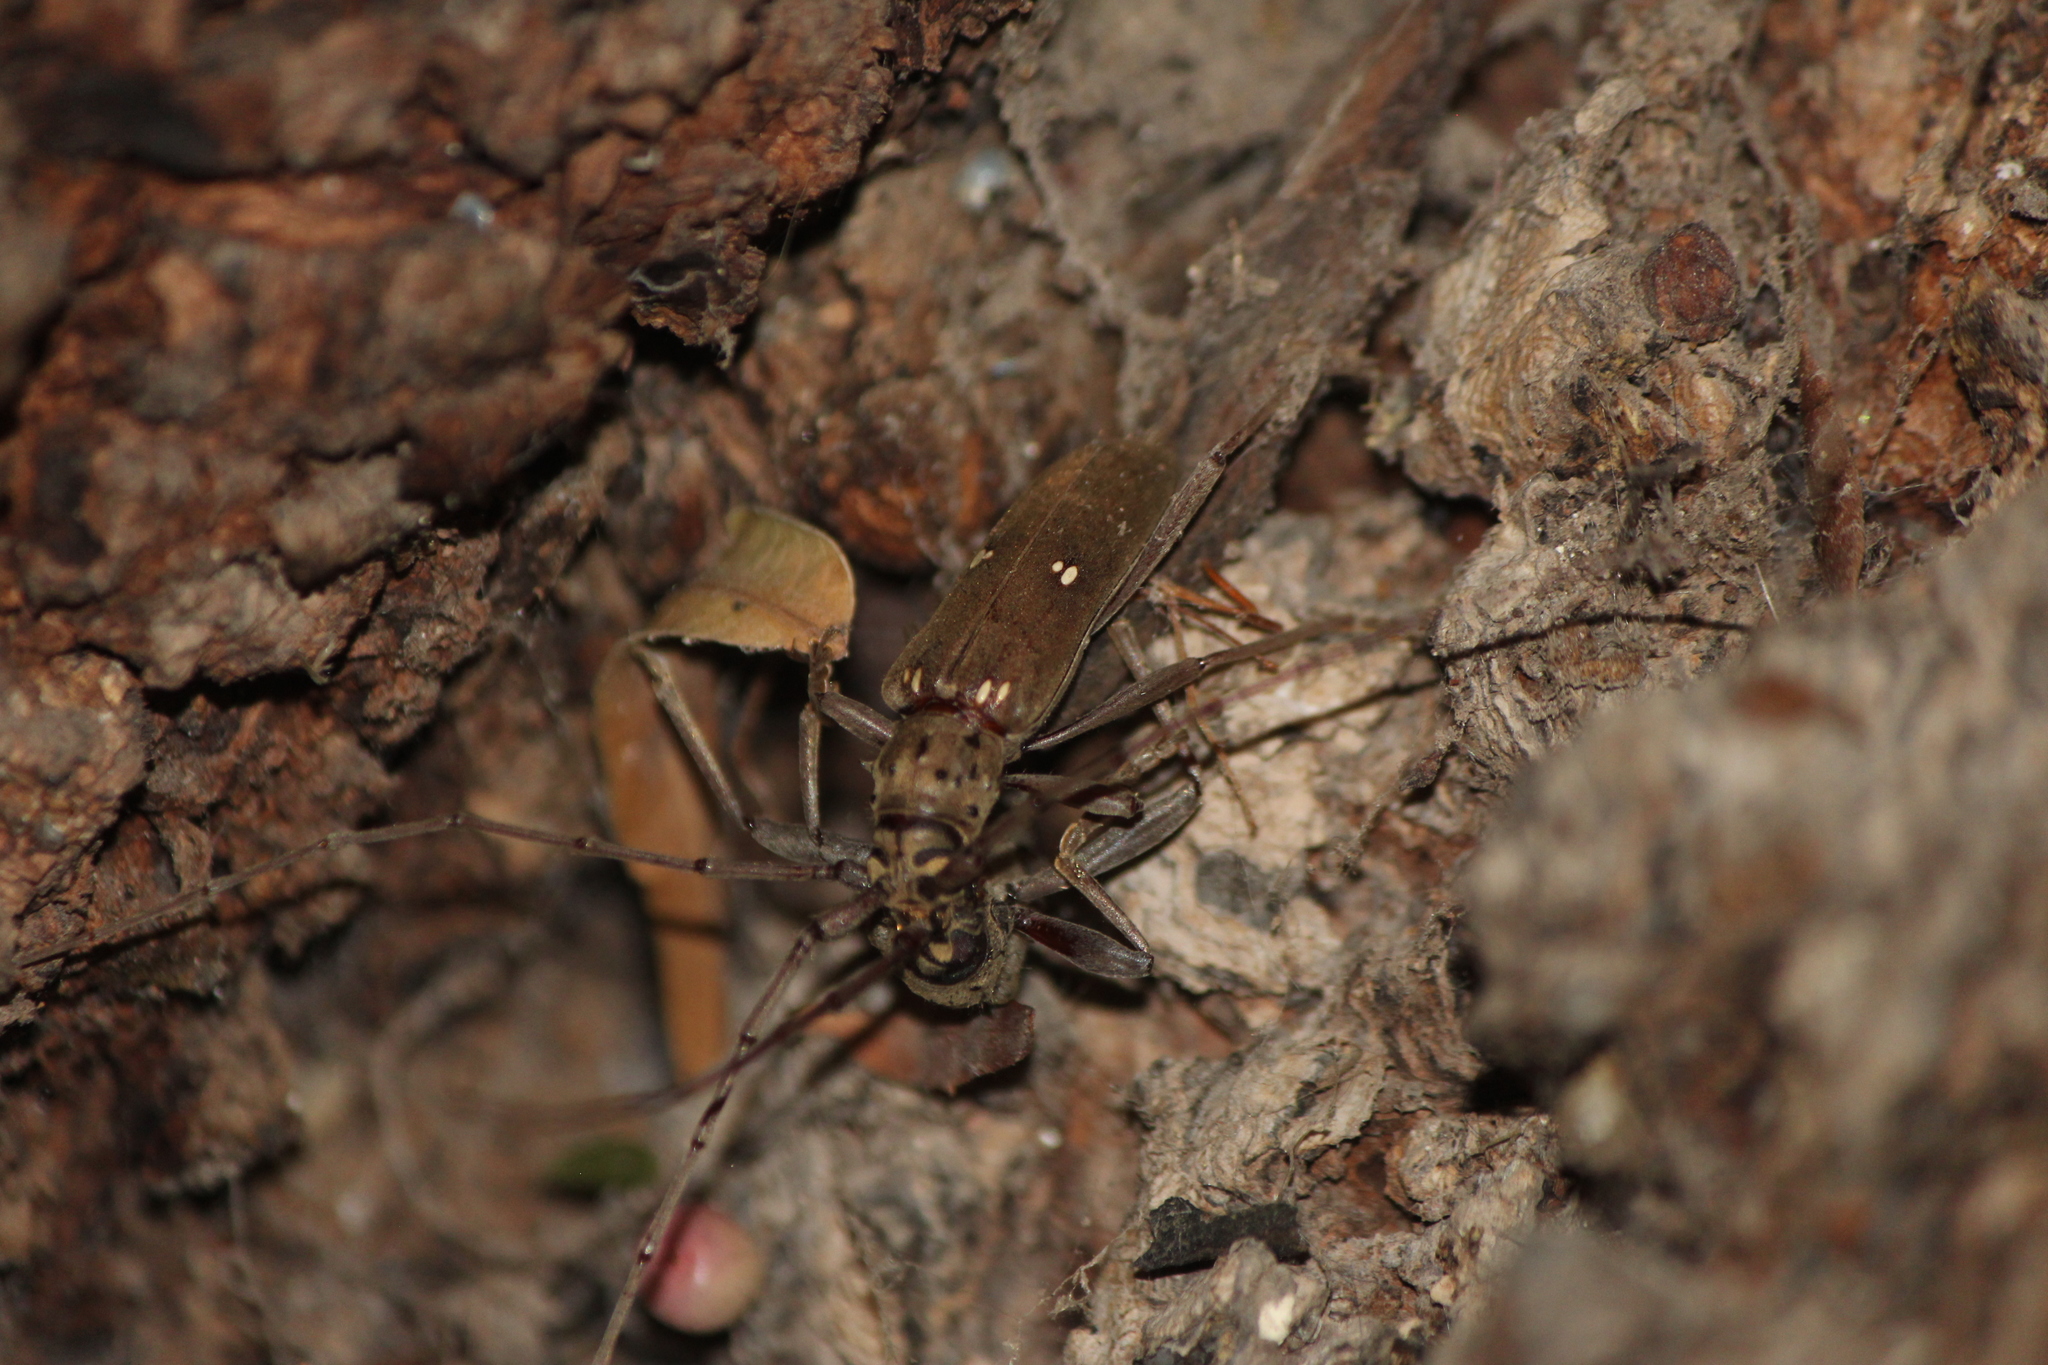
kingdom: Animalia
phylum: Arthropoda
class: Insecta
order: Coleoptera
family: Cerambycidae
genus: Susuacanga
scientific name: Susuacanga patruelis
